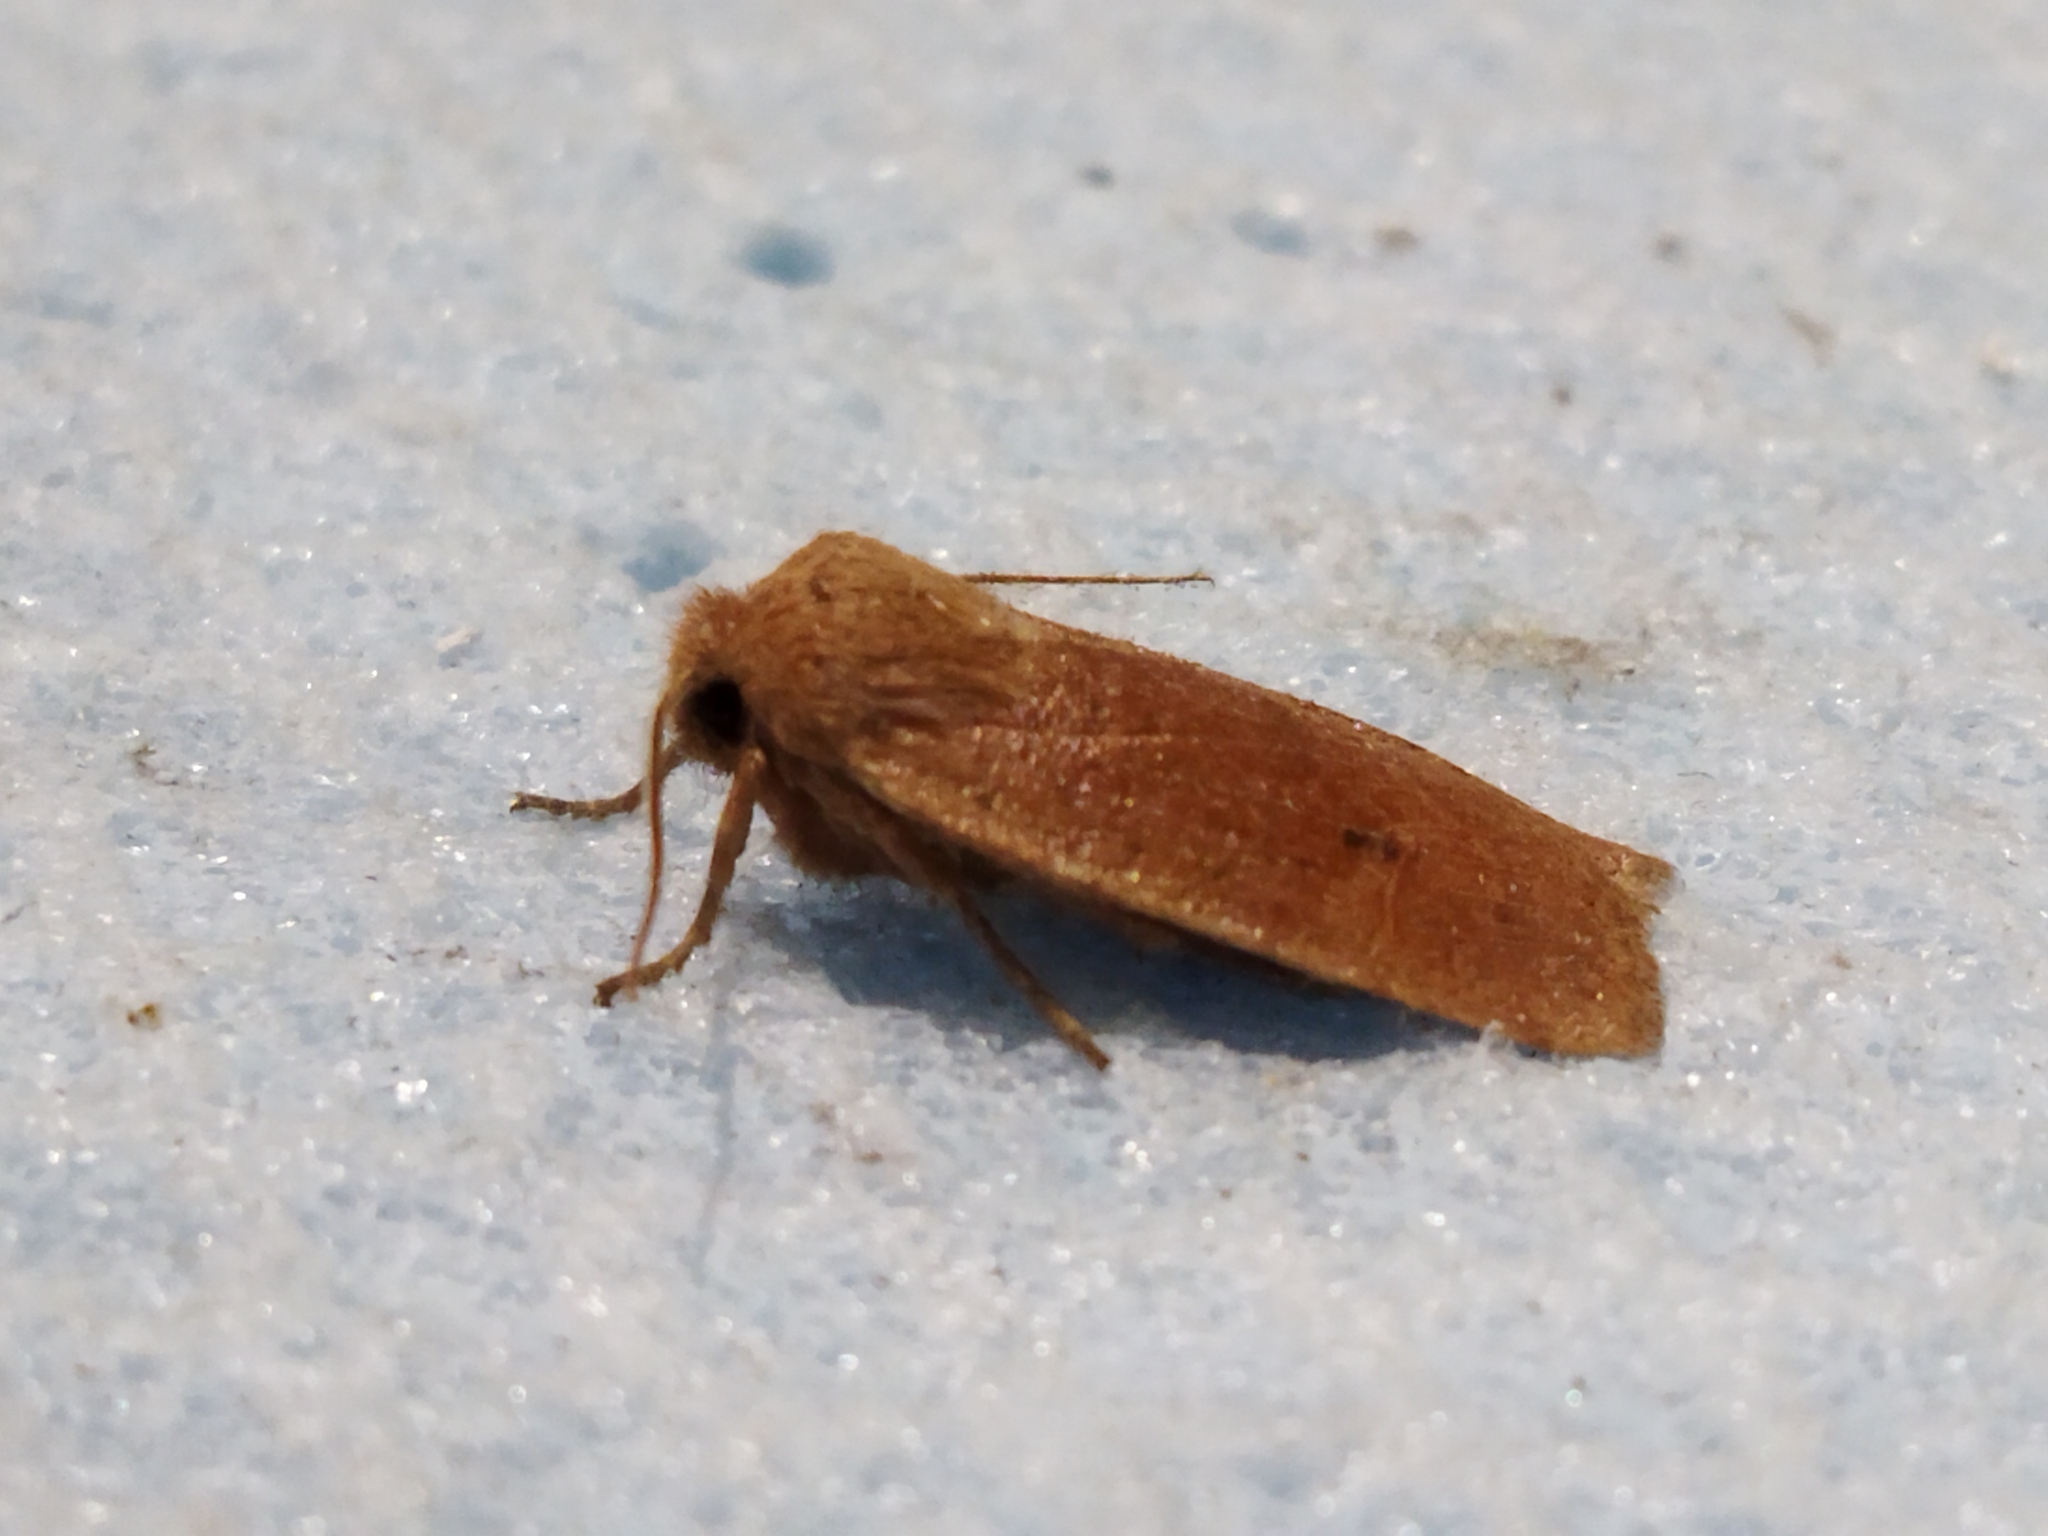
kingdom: Animalia
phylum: Arthropoda
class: Insecta
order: Lepidoptera
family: Noctuidae
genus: Conistra
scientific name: Conistra vaccinii
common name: Chestnut
